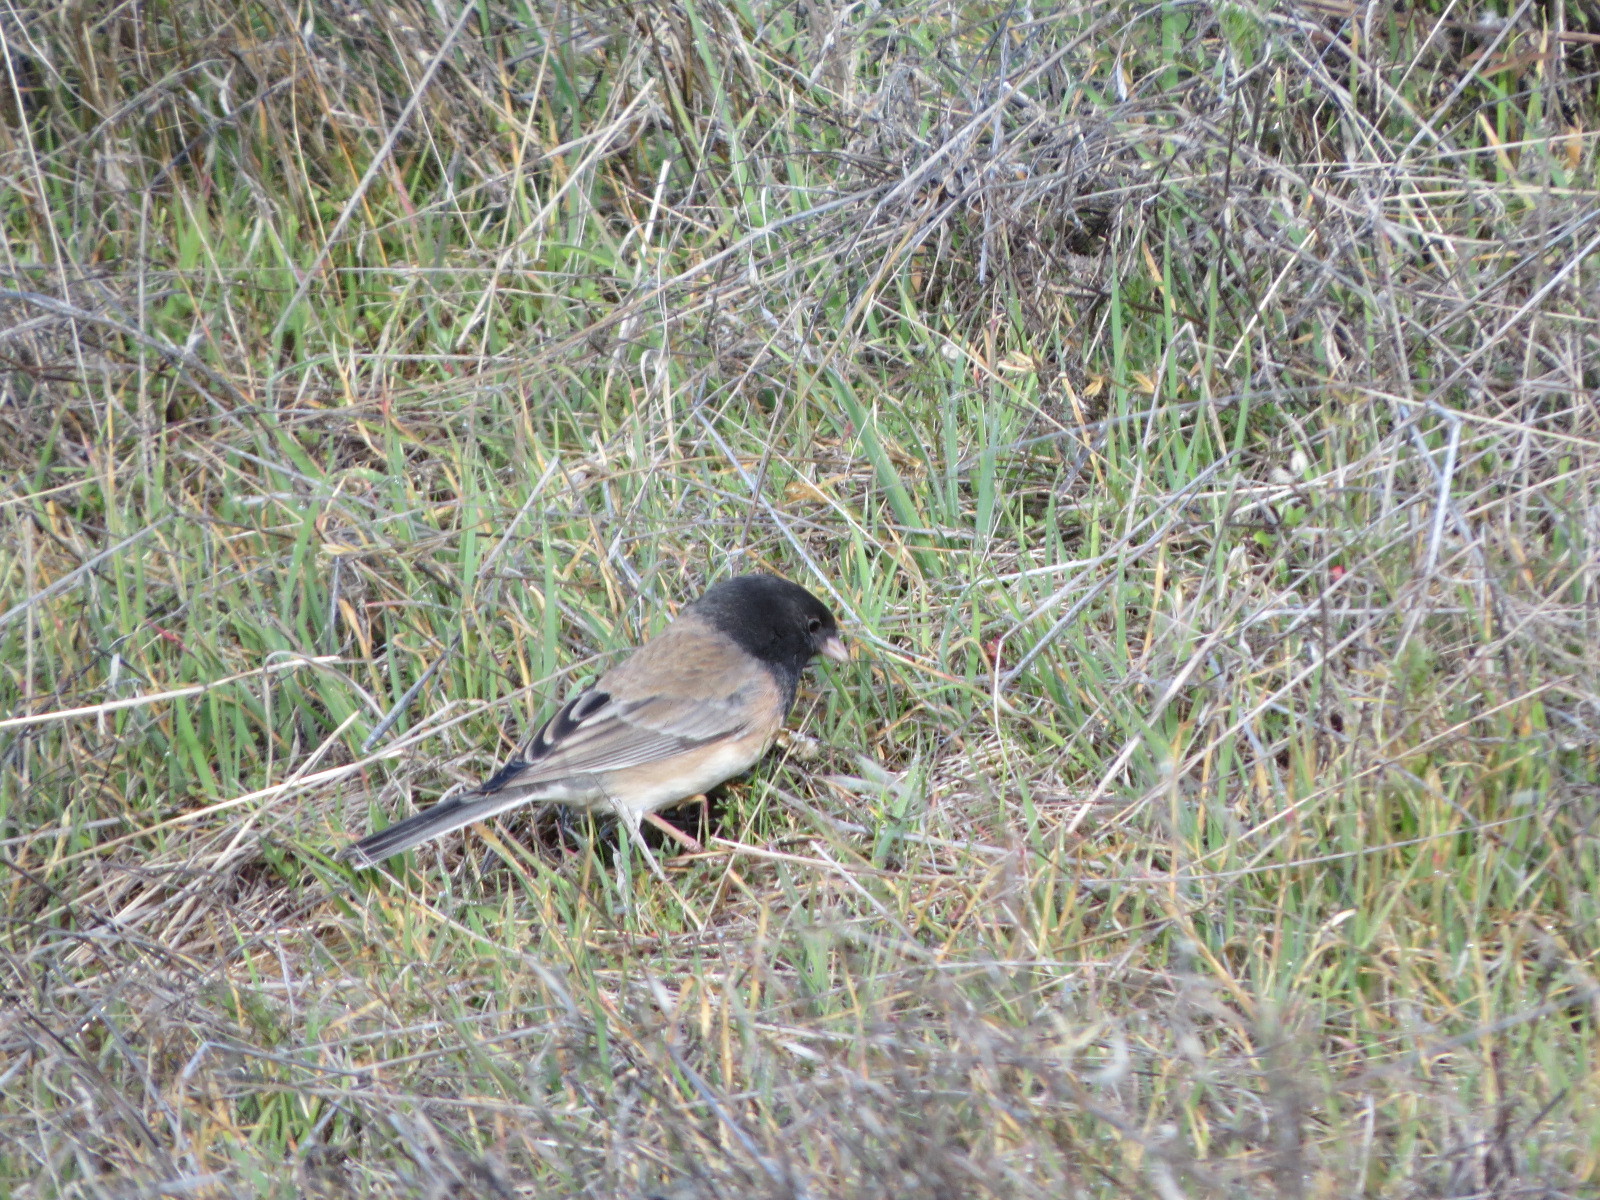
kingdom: Animalia
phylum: Chordata
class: Aves
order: Passeriformes
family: Passerellidae
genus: Junco
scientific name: Junco hyemalis
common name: Dark-eyed junco
